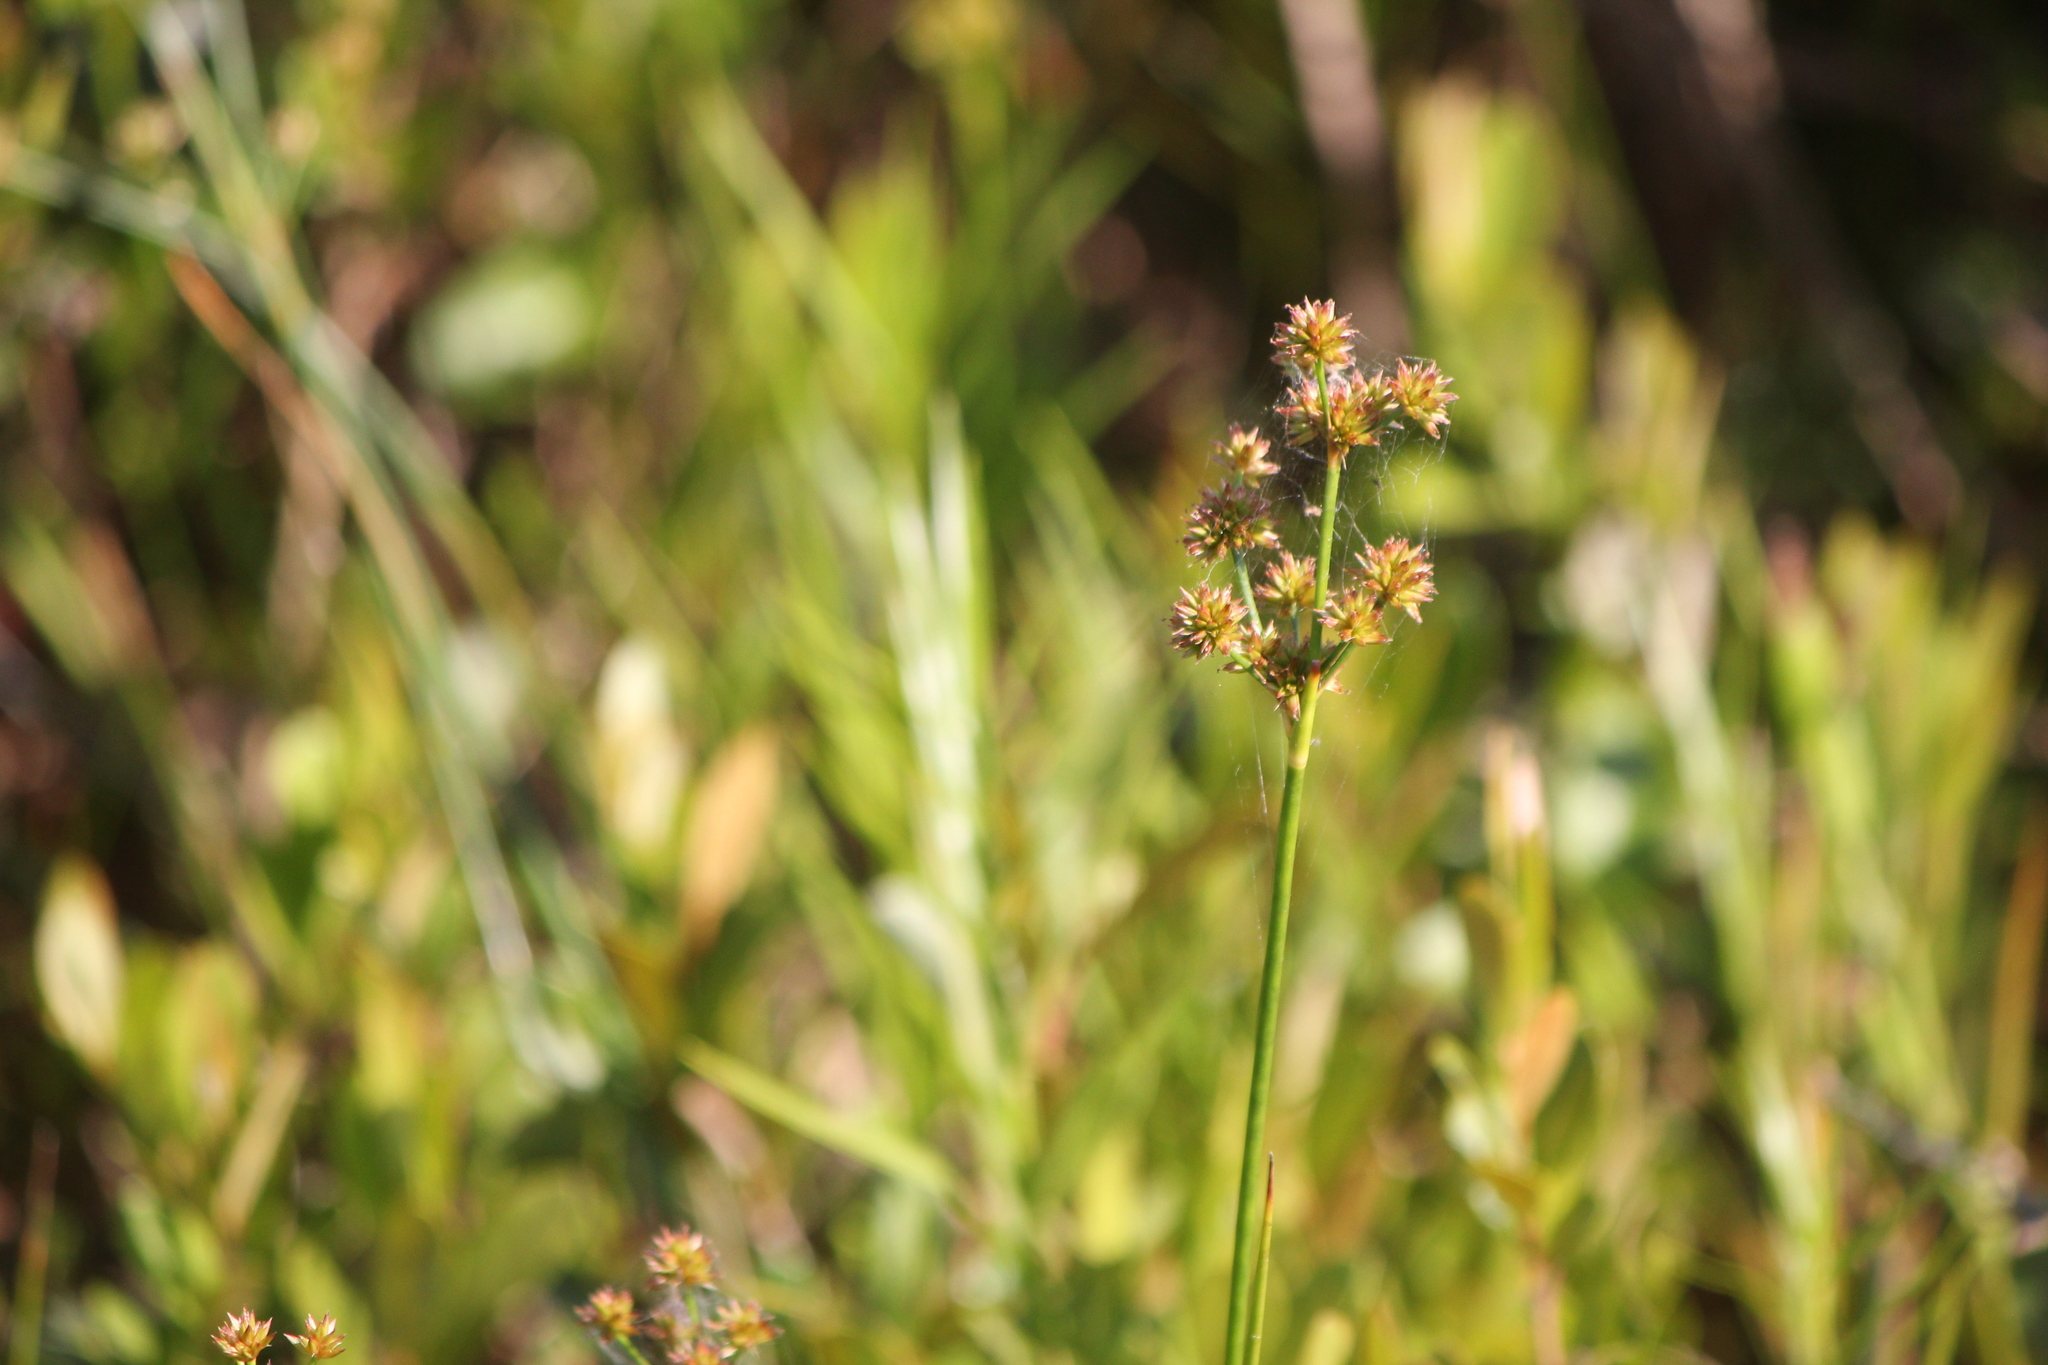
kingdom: Plantae
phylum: Tracheophyta
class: Liliopsida
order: Poales
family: Juncaceae
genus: Juncus
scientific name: Juncus canadensis
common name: Canada rush
